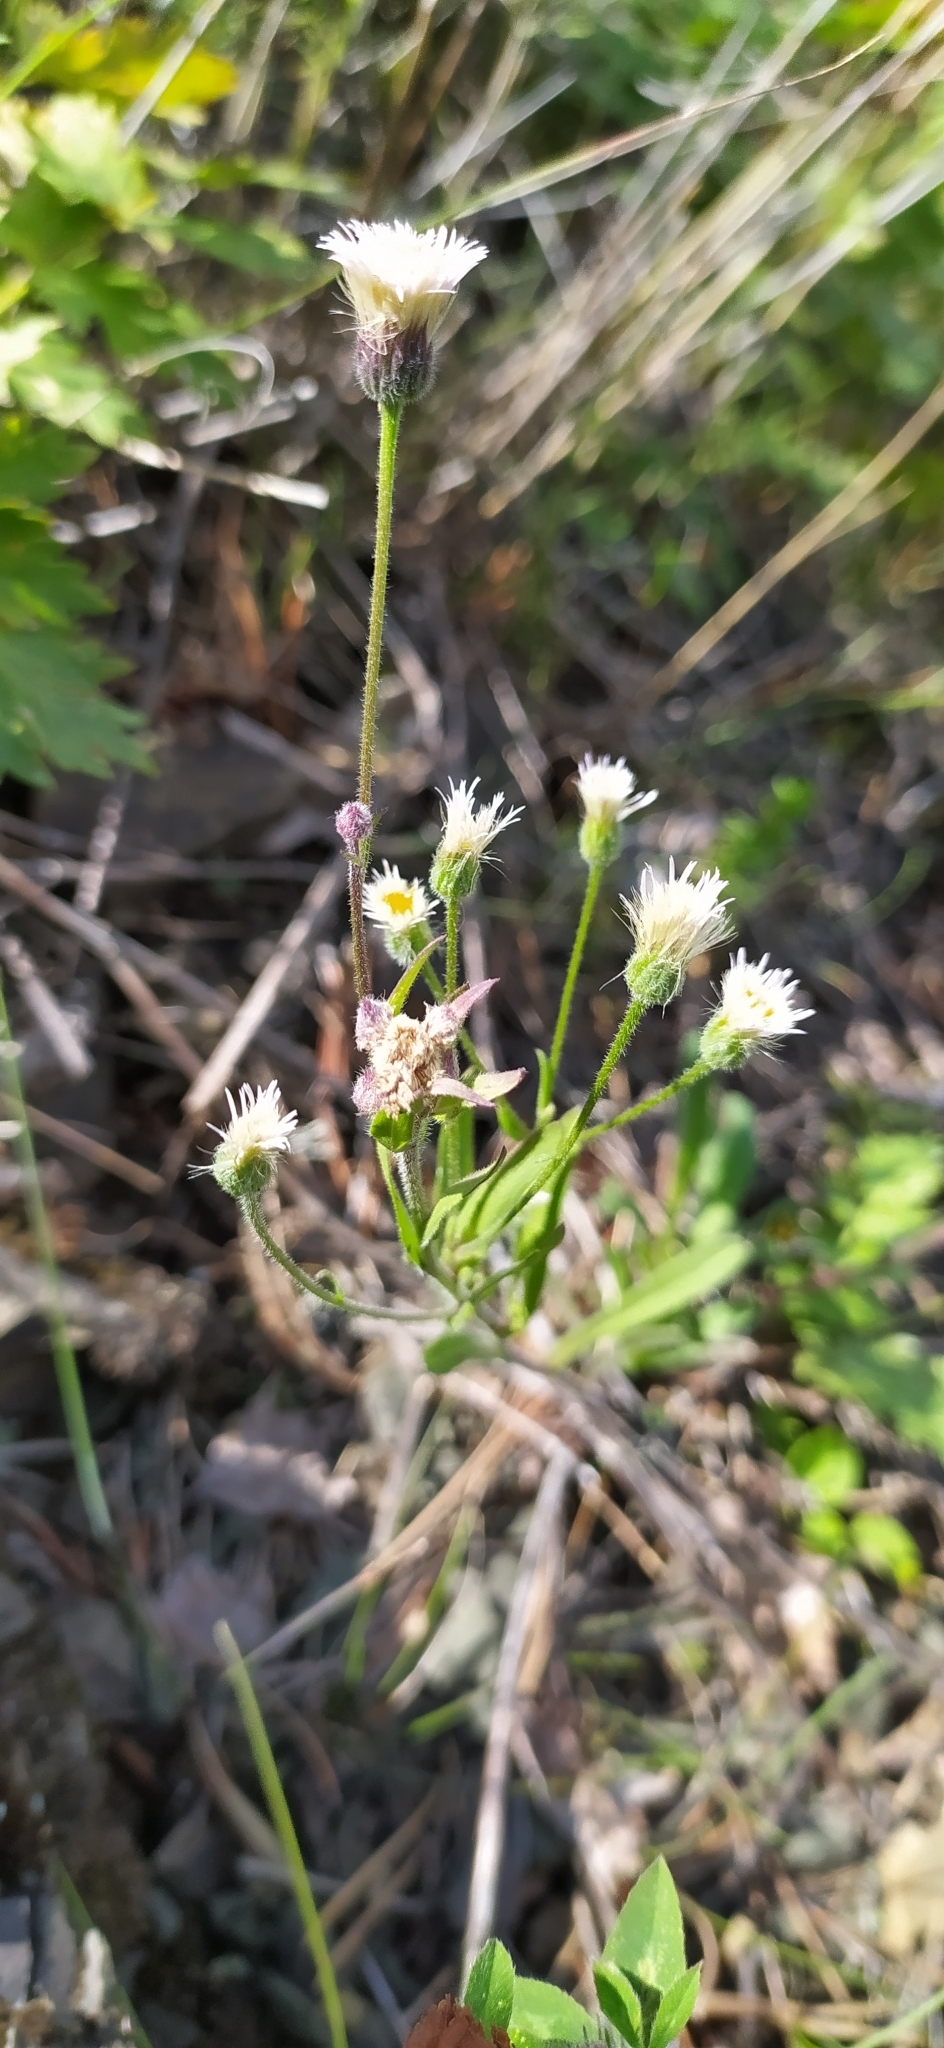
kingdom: Plantae
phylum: Tracheophyta
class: Magnoliopsida
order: Asterales
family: Asteraceae
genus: Erigeron
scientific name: Erigeron acris
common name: Blue fleabane
